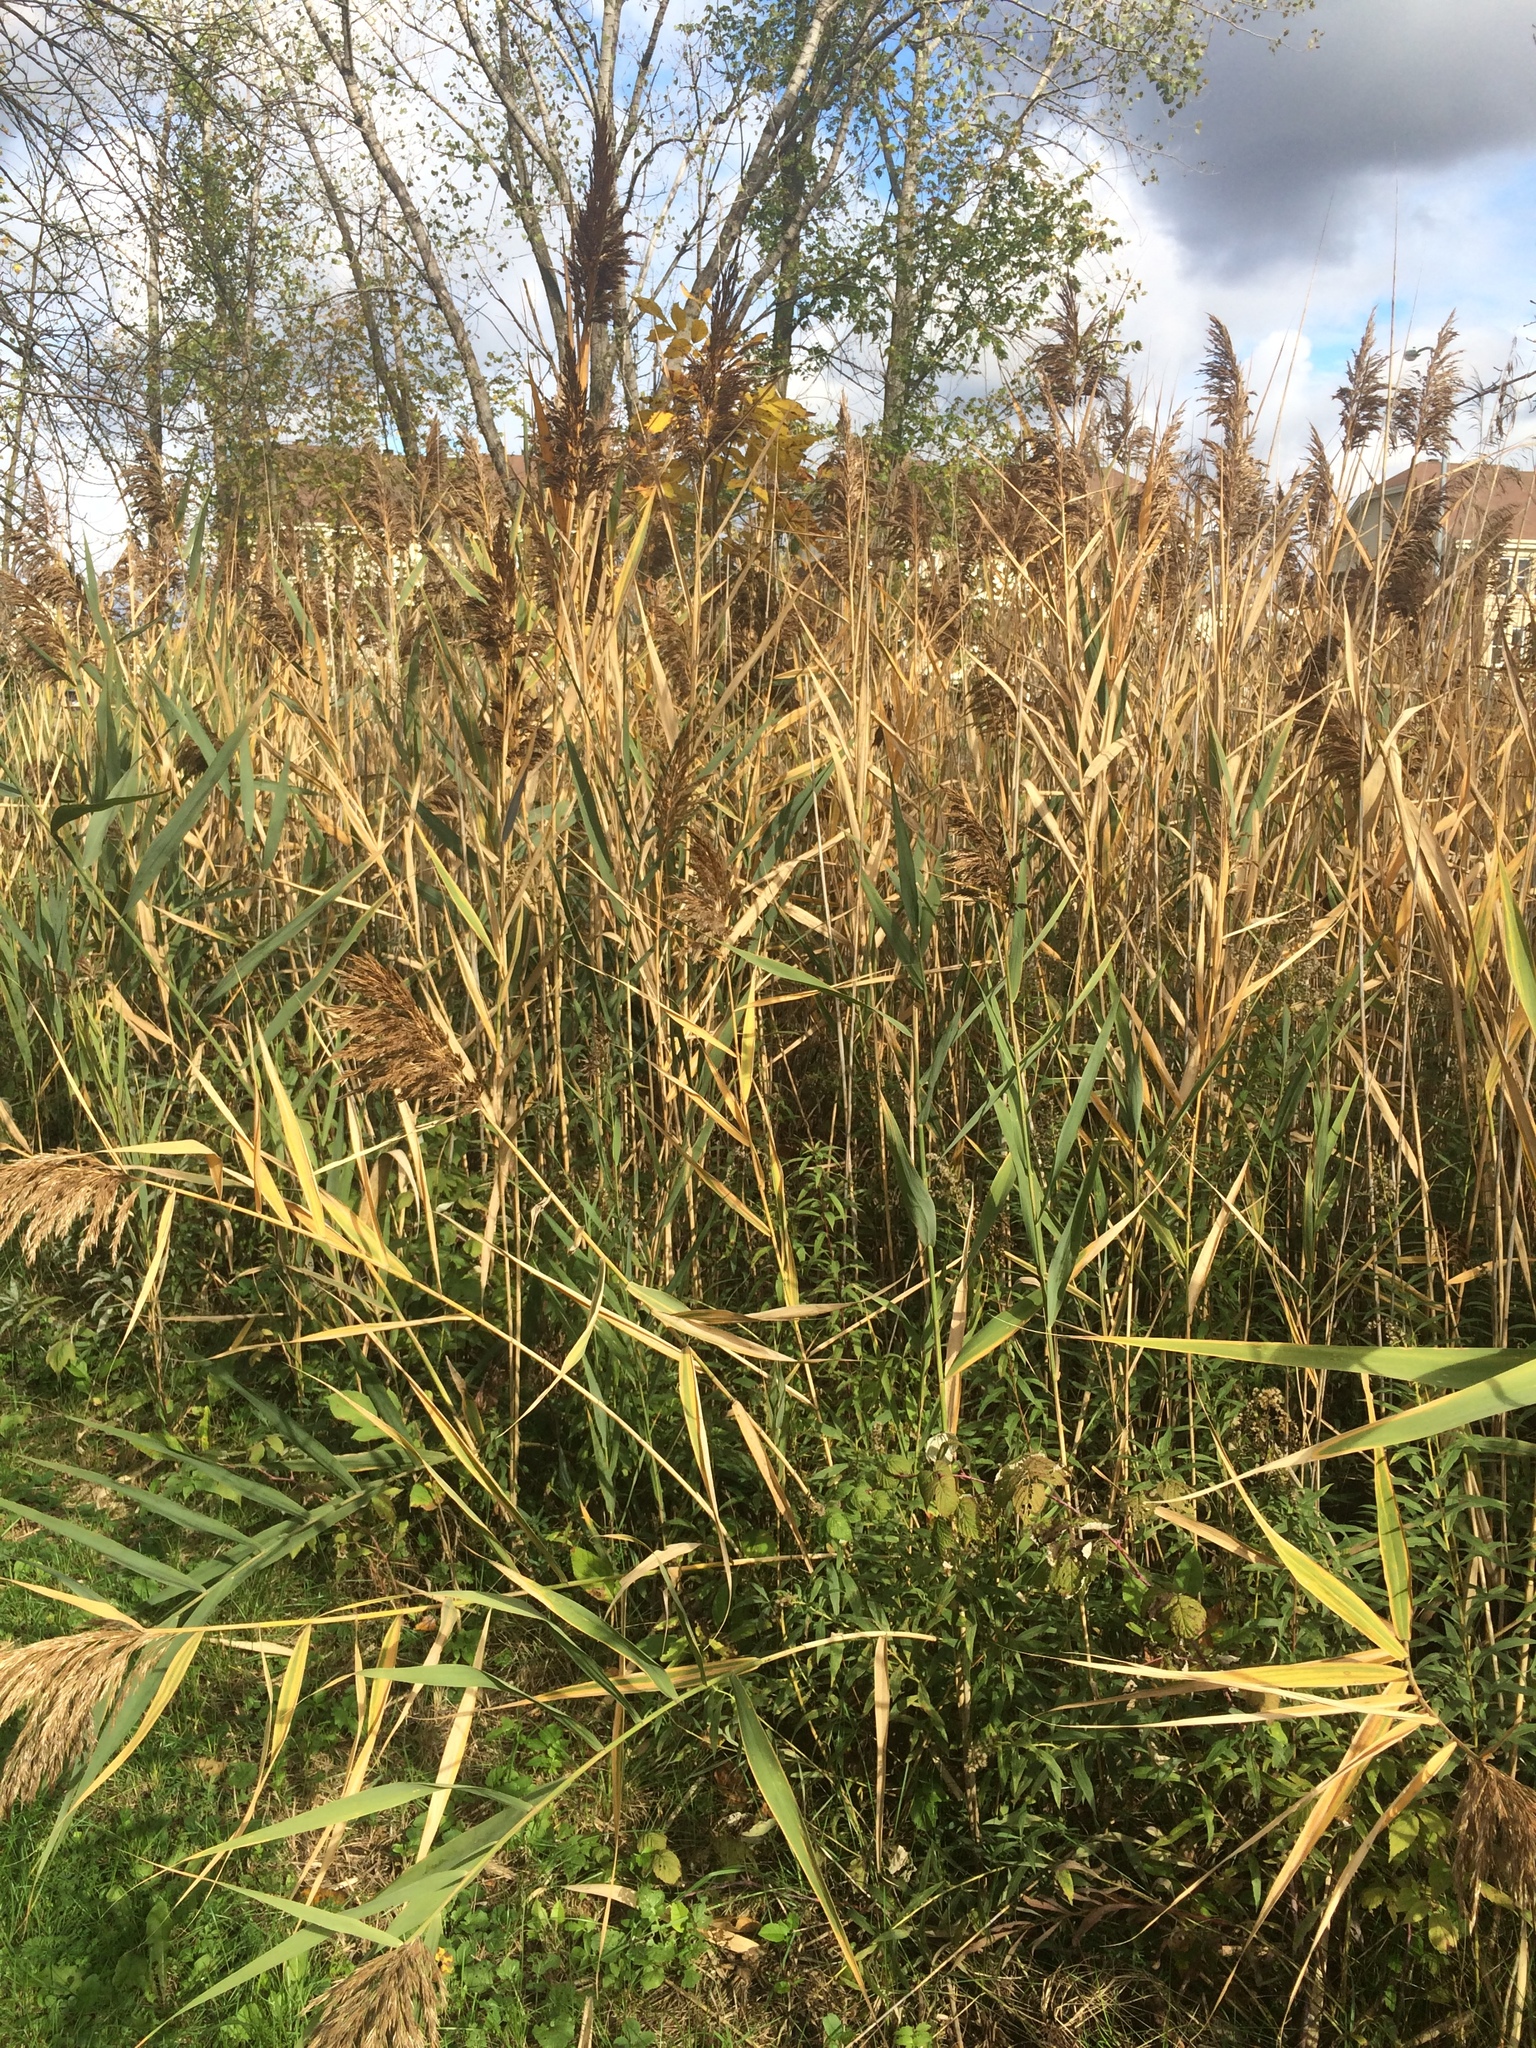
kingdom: Plantae
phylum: Tracheophyta
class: Liliopsida
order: Poales
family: Poaceae
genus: Phragmites
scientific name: Phragmites australis
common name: Common reed
